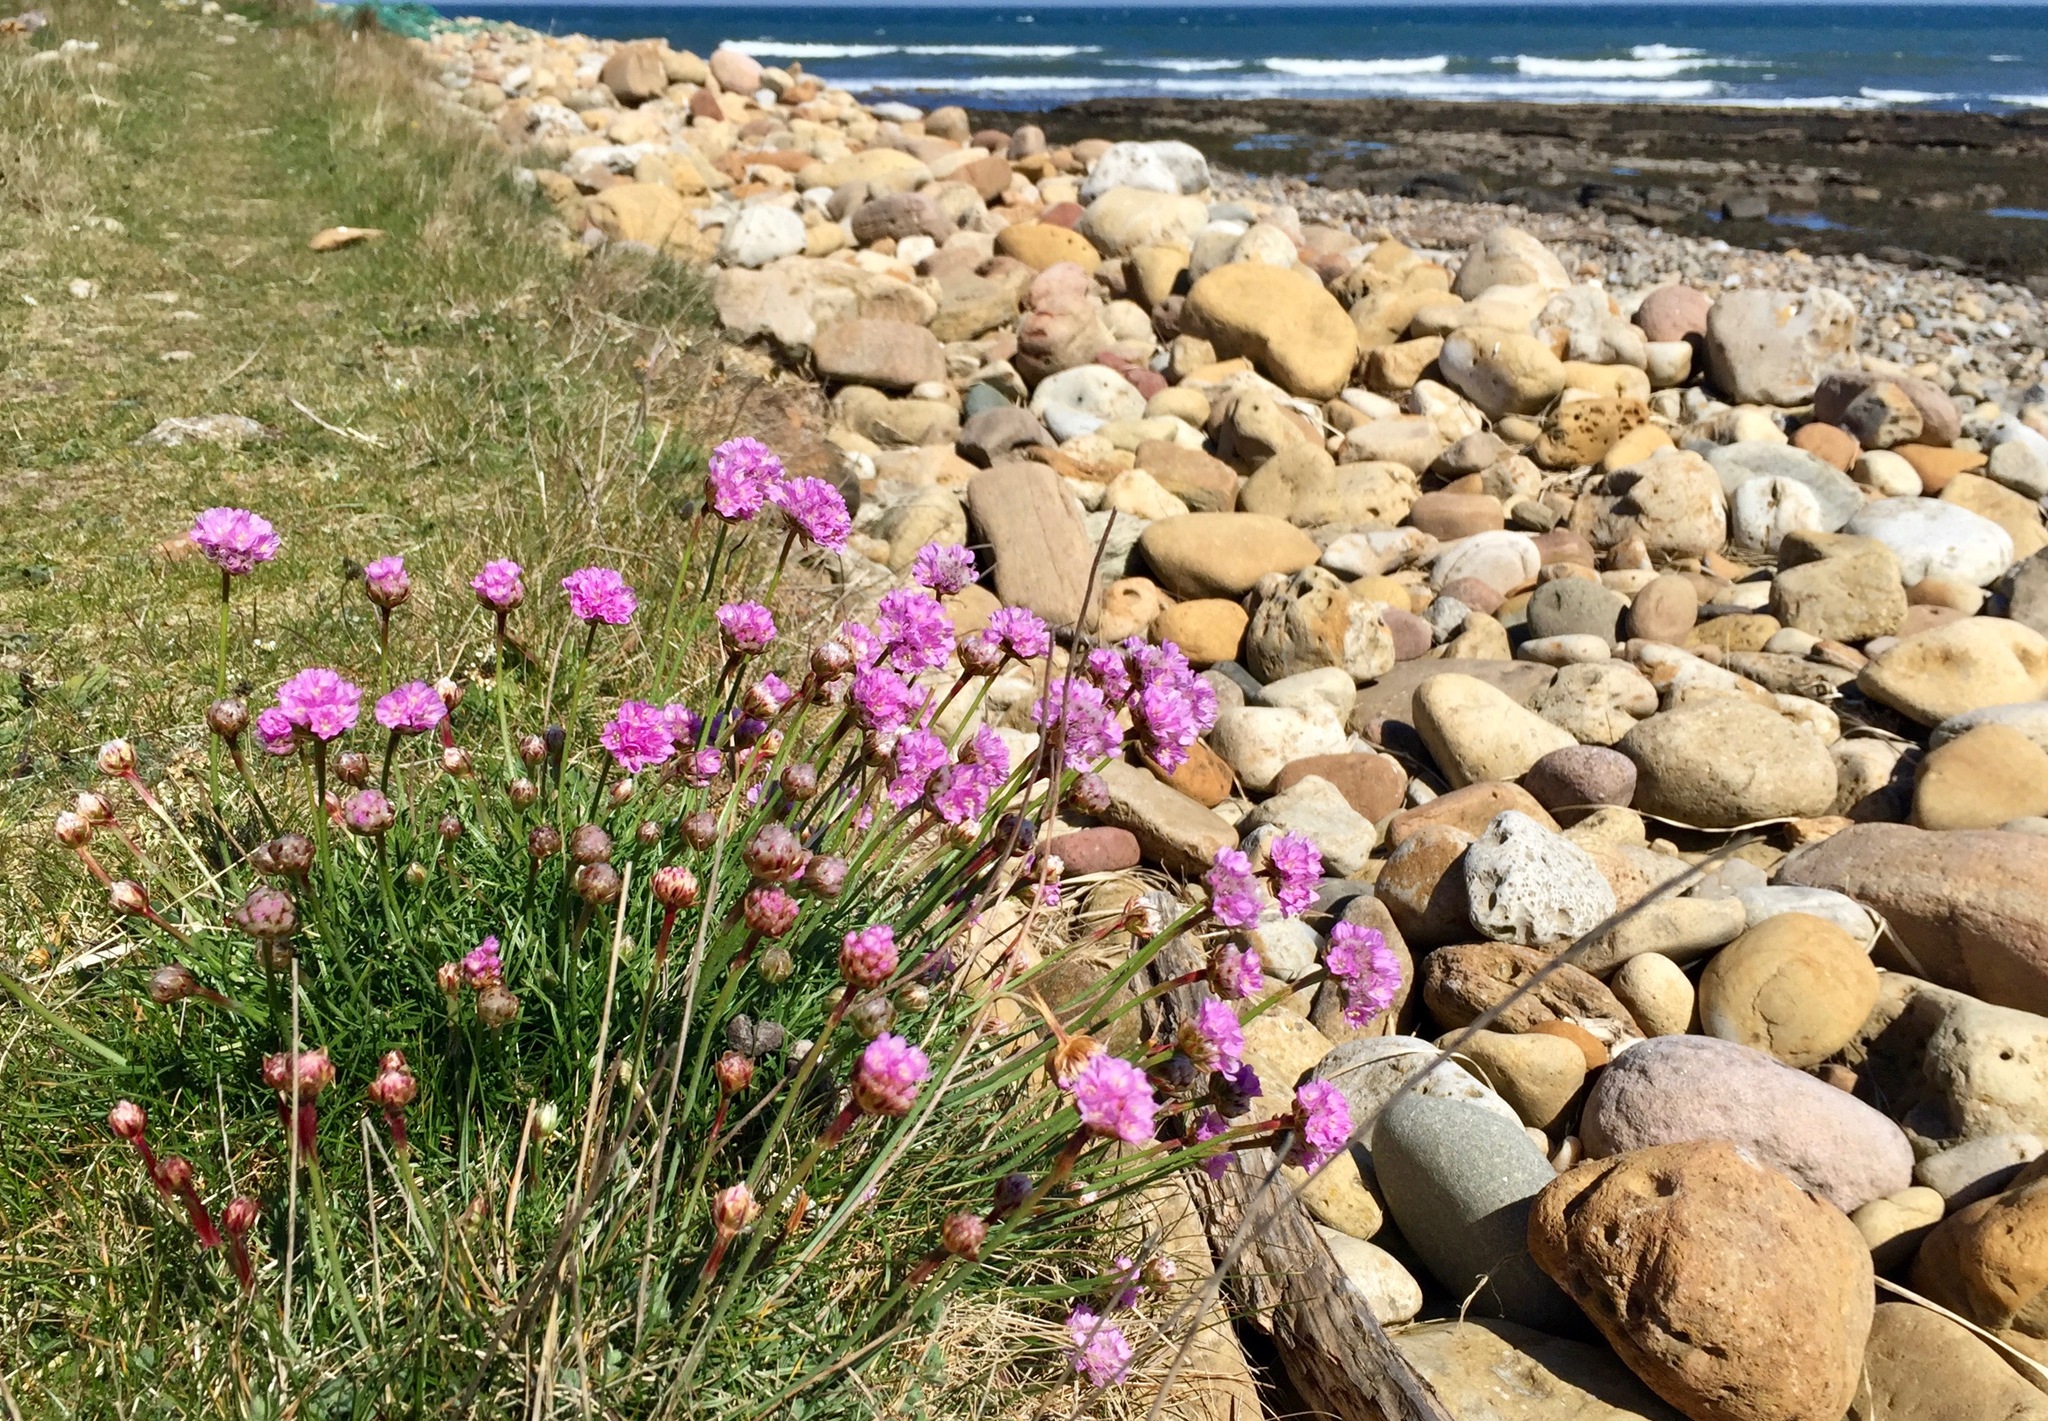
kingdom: Plantae
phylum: Tracheophyta
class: Magnoliopsida
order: Caryophyllales
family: Plumbaginaceae
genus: Armeria
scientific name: Armeria maritima
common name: Thrift
